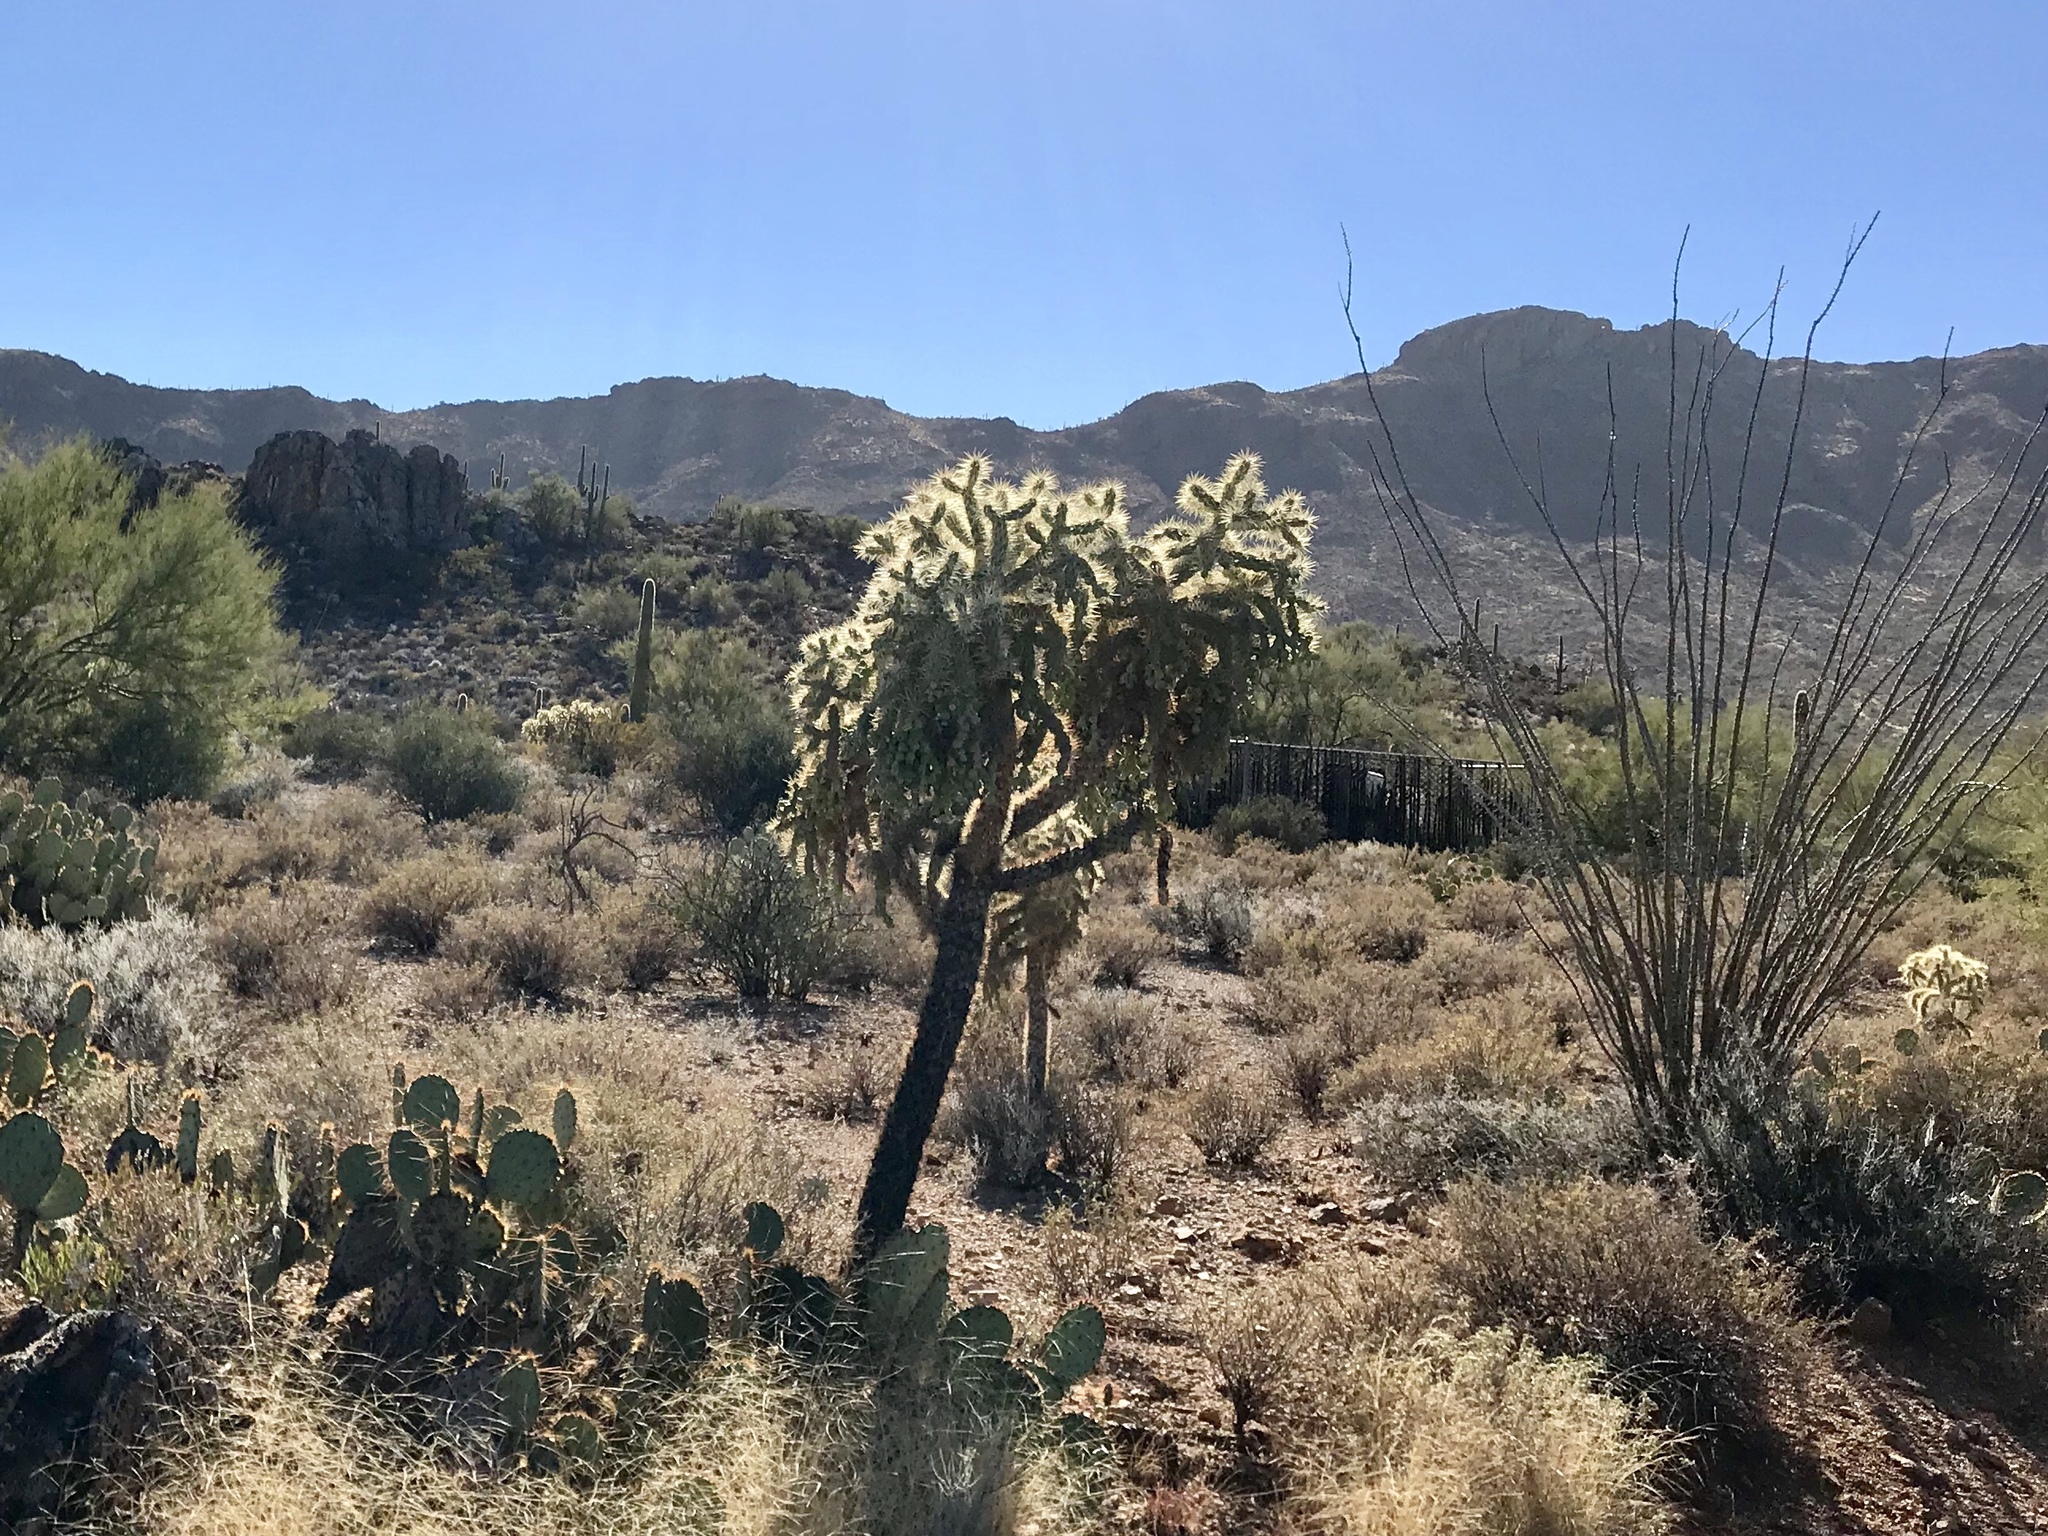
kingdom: Plantae
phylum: Tracheophyta
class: Magnoliopsida
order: Caryophyllales
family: Cactaceae
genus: Cylindropuntia
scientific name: Cylindropuntia fulgida
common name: Jumping cholla
